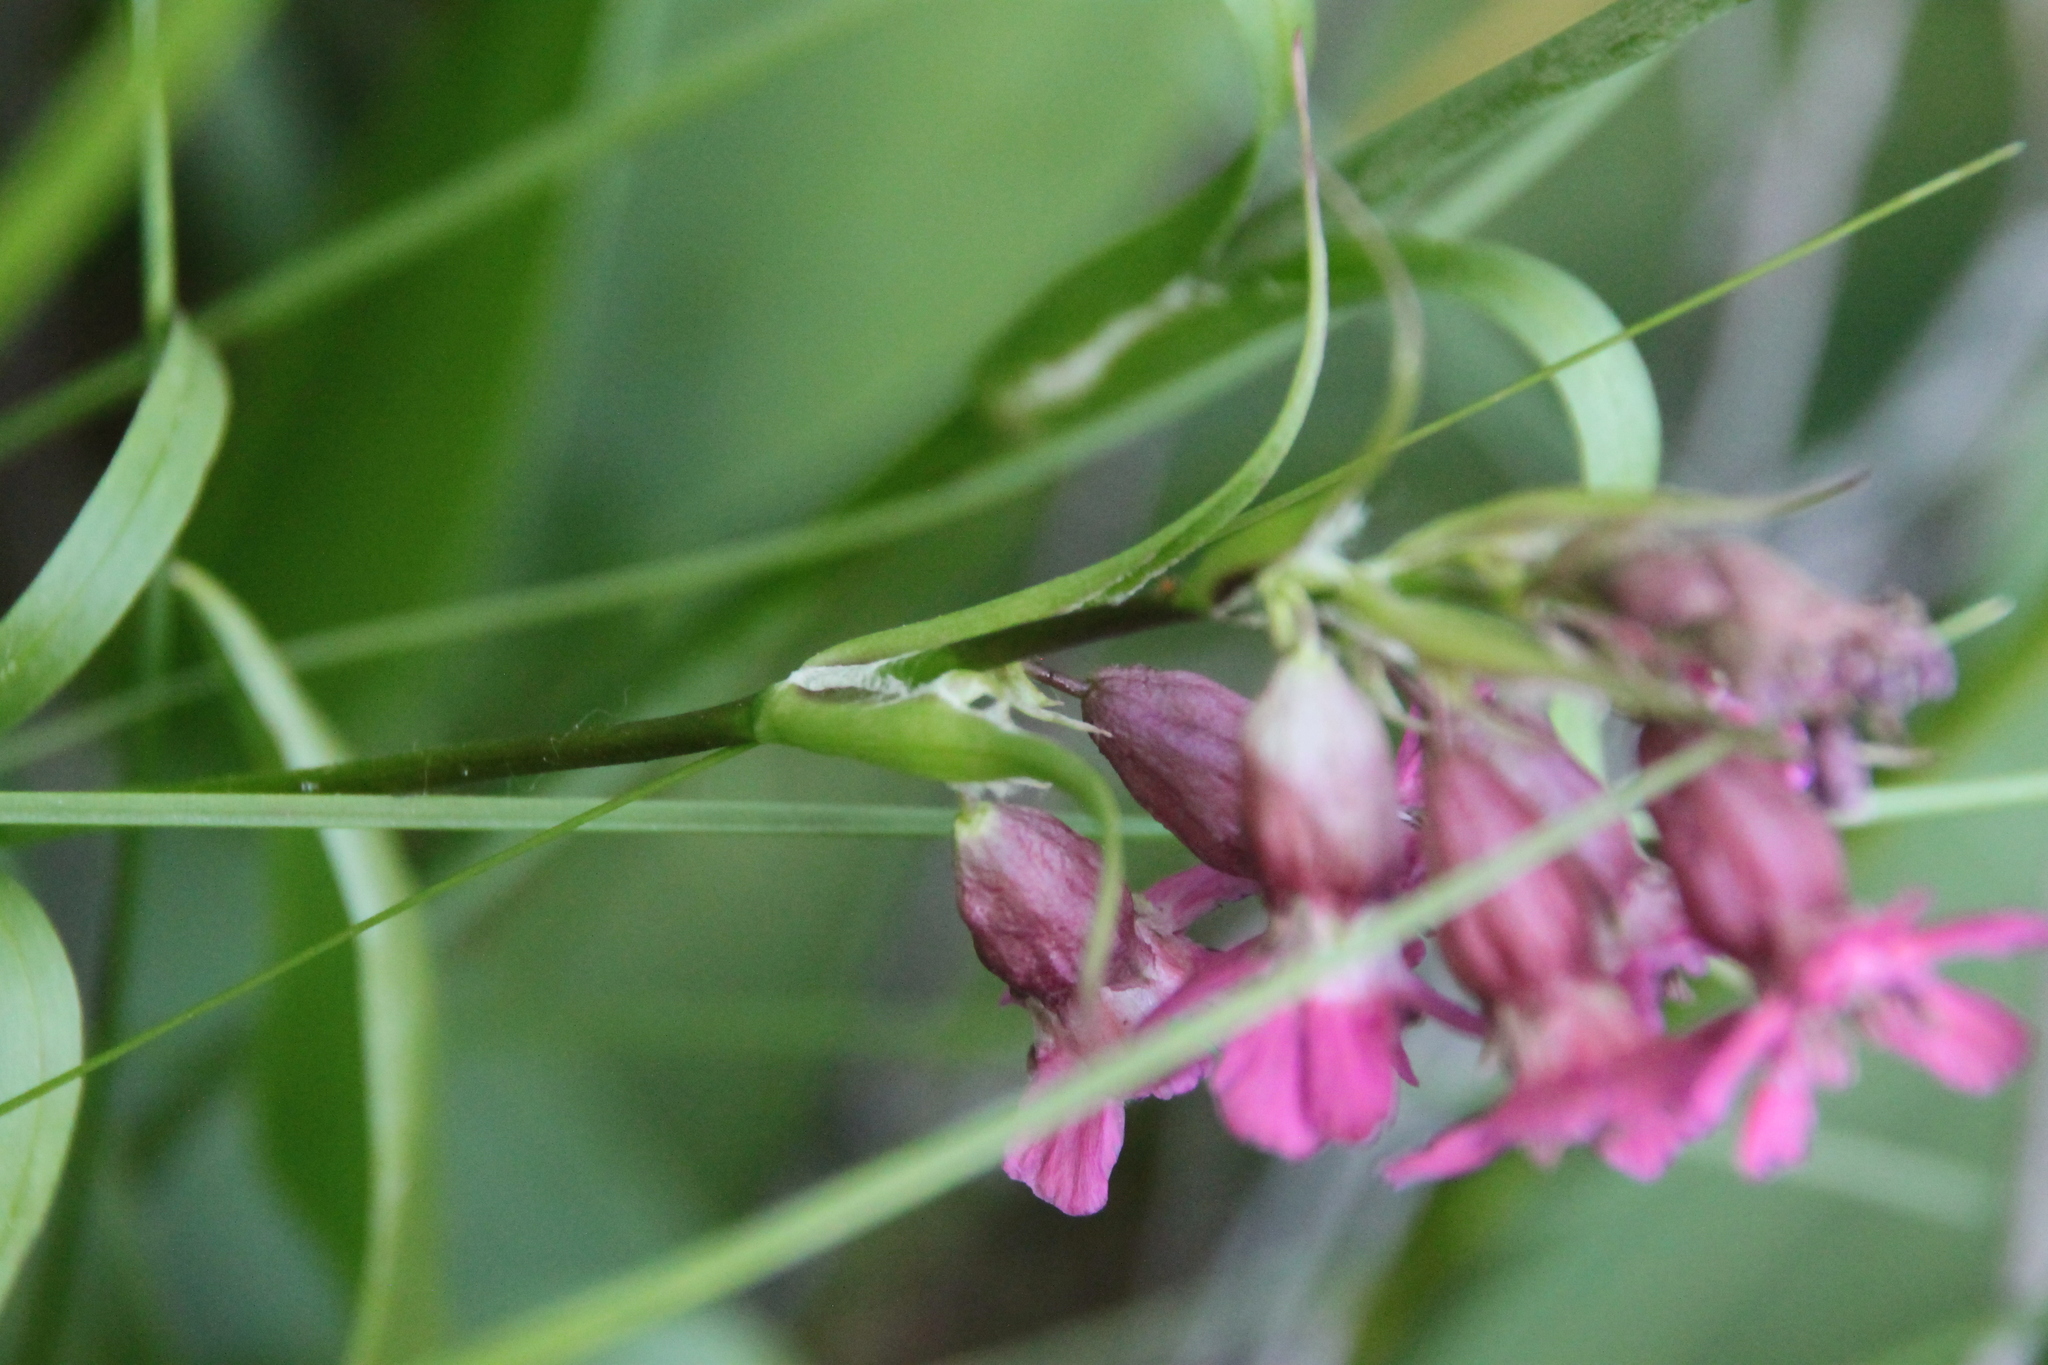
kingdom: Plantae
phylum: Tracheophyta
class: Magnoliopsida
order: Caryophyllales
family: Caryophyllaceae
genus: Viscaria
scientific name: Viscaria vulgaris
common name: Clammy campion
